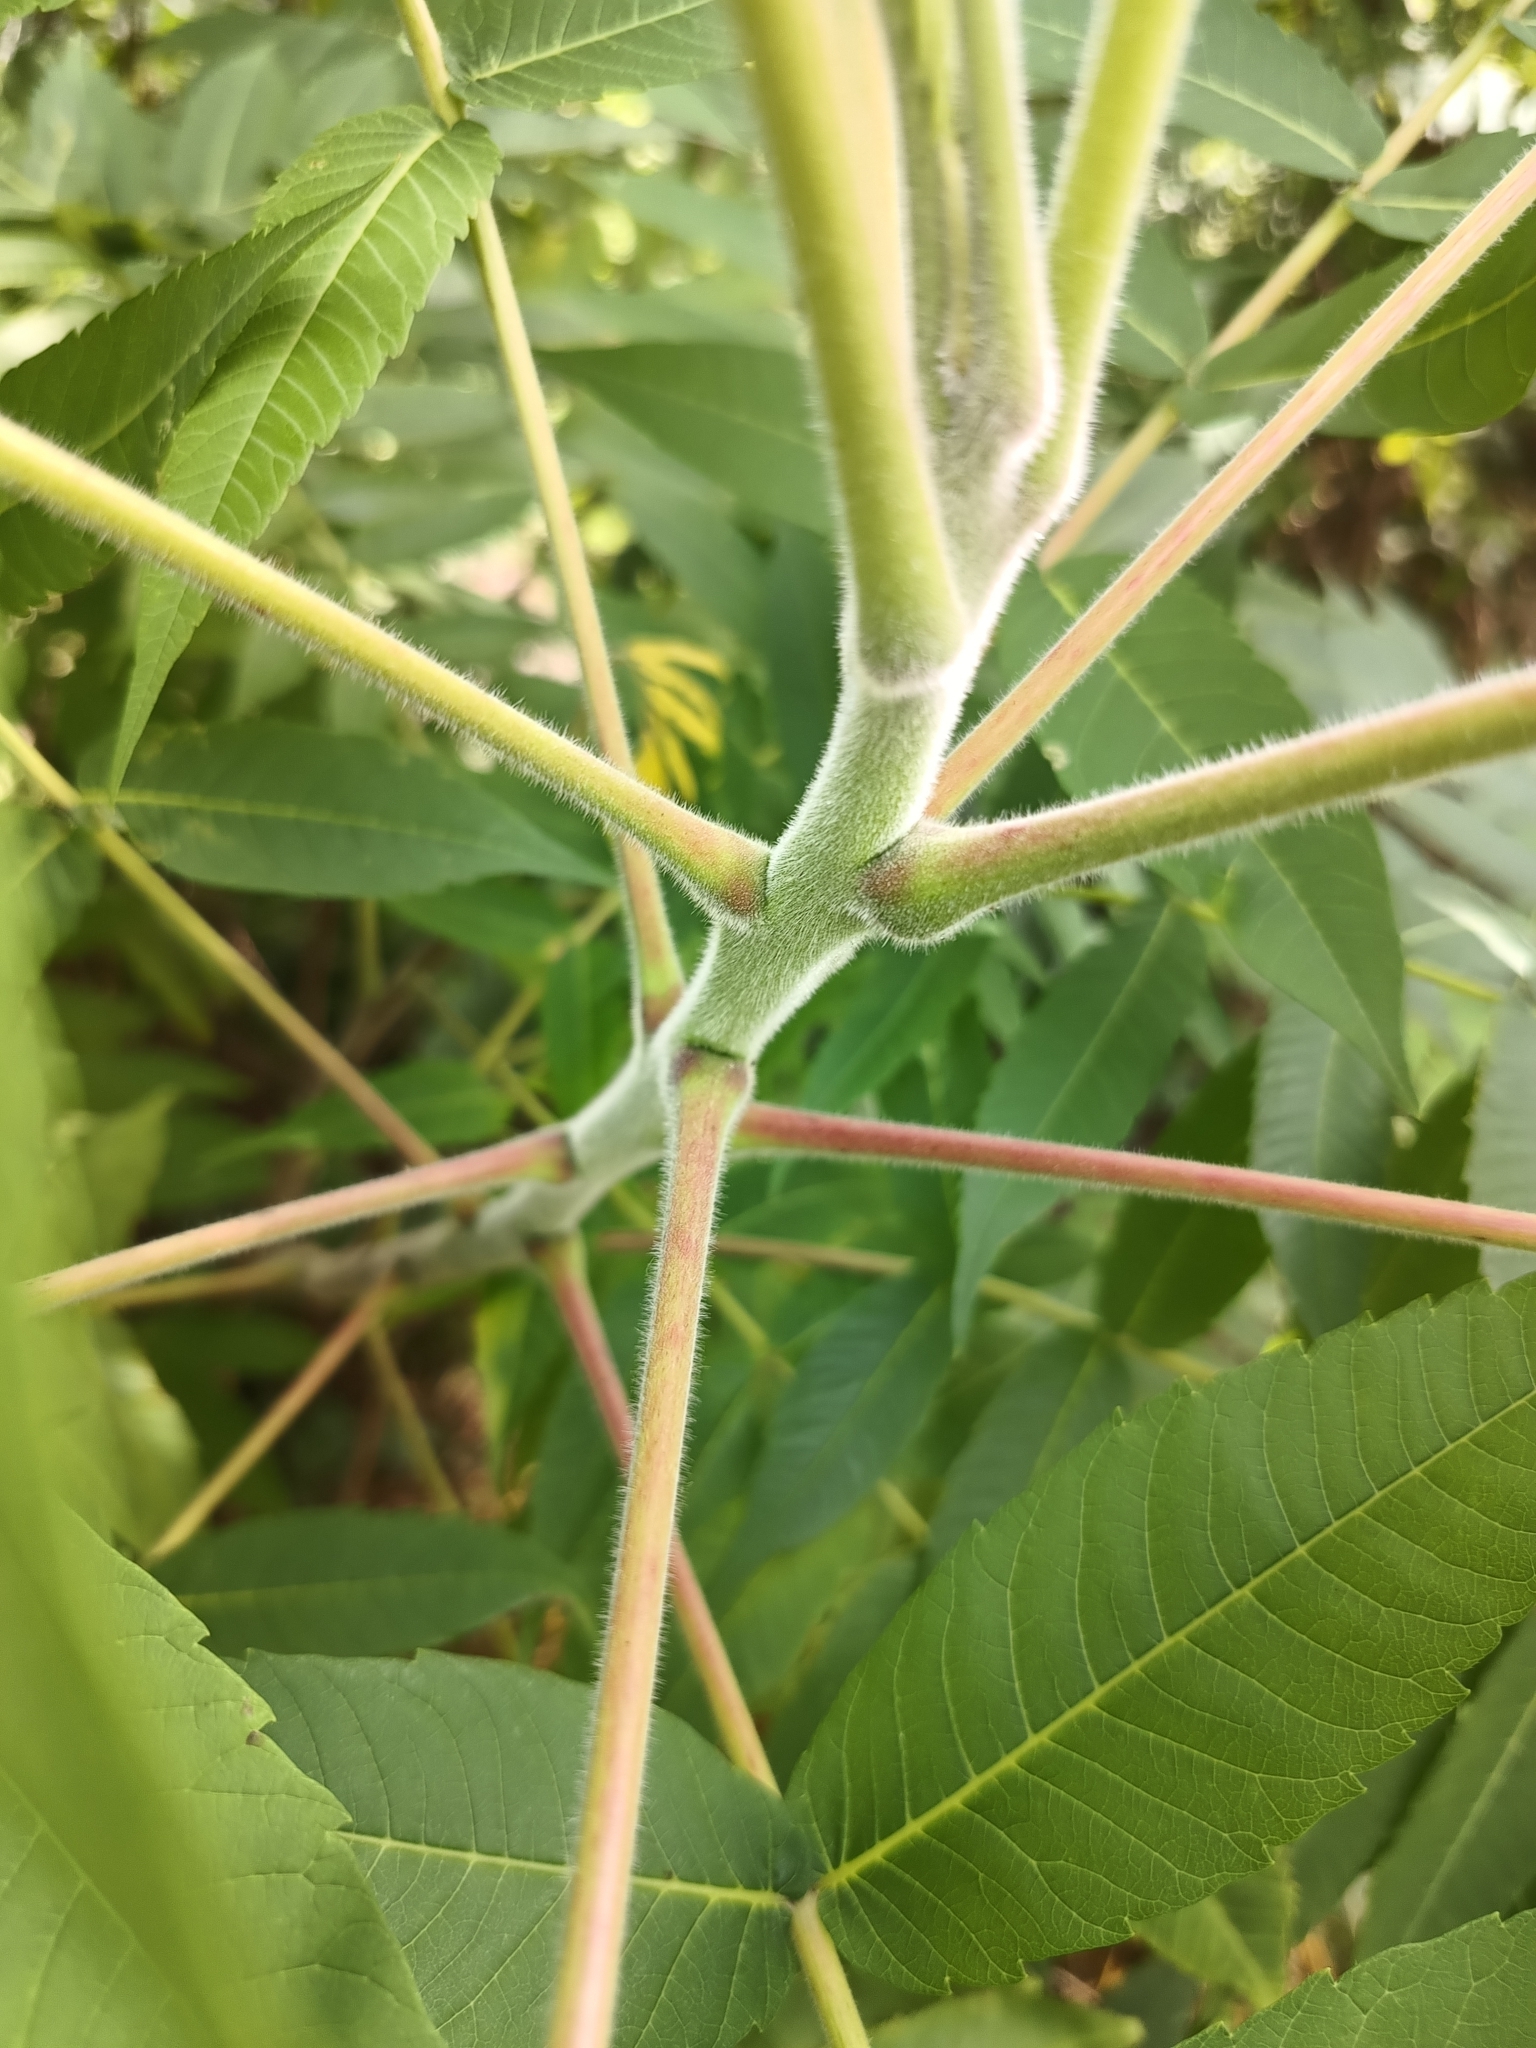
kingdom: Plantae
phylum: Tracheophyta
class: Magnoliopsida
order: Sapindales
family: Anacardiaceae
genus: Rhus
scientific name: Rhus typhina
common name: Staghorn sumac
